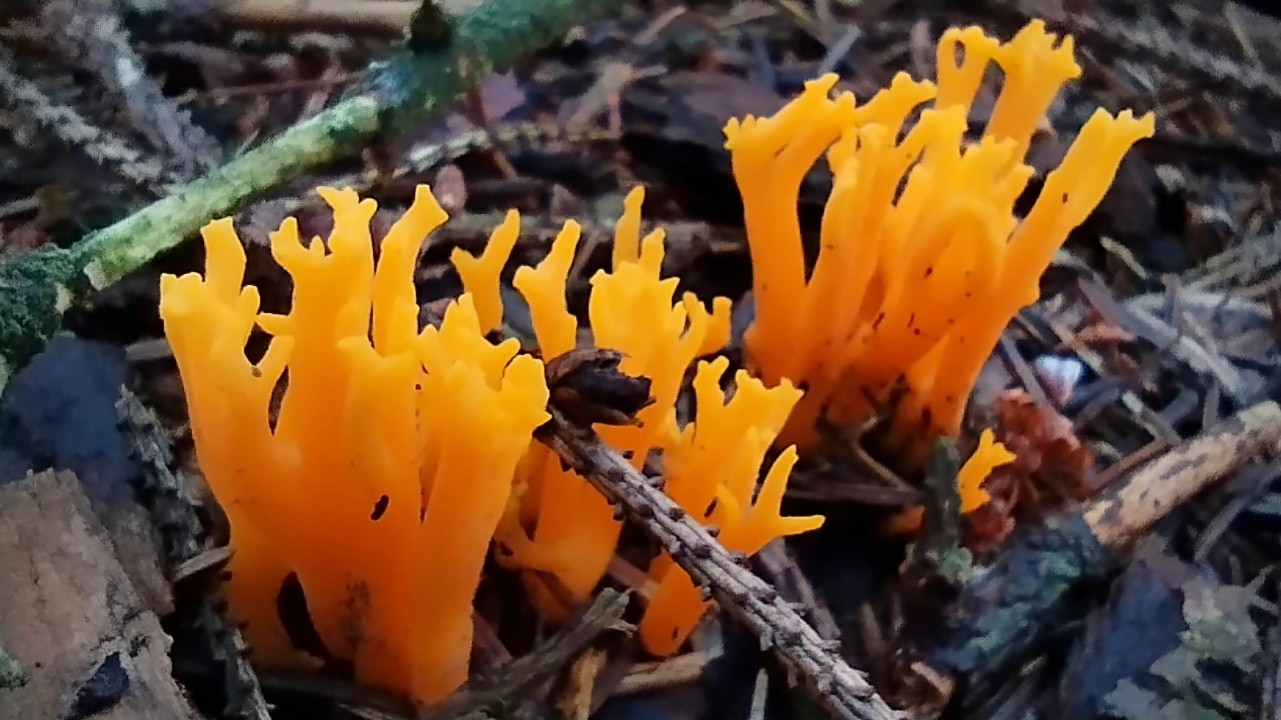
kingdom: Fungi
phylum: Basidiomycota
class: Dacrymycetes
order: Dacrymycetales
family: Dacrymycetaceae
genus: Calocera
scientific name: Calocera viscosa
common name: Yellow stagshorn
